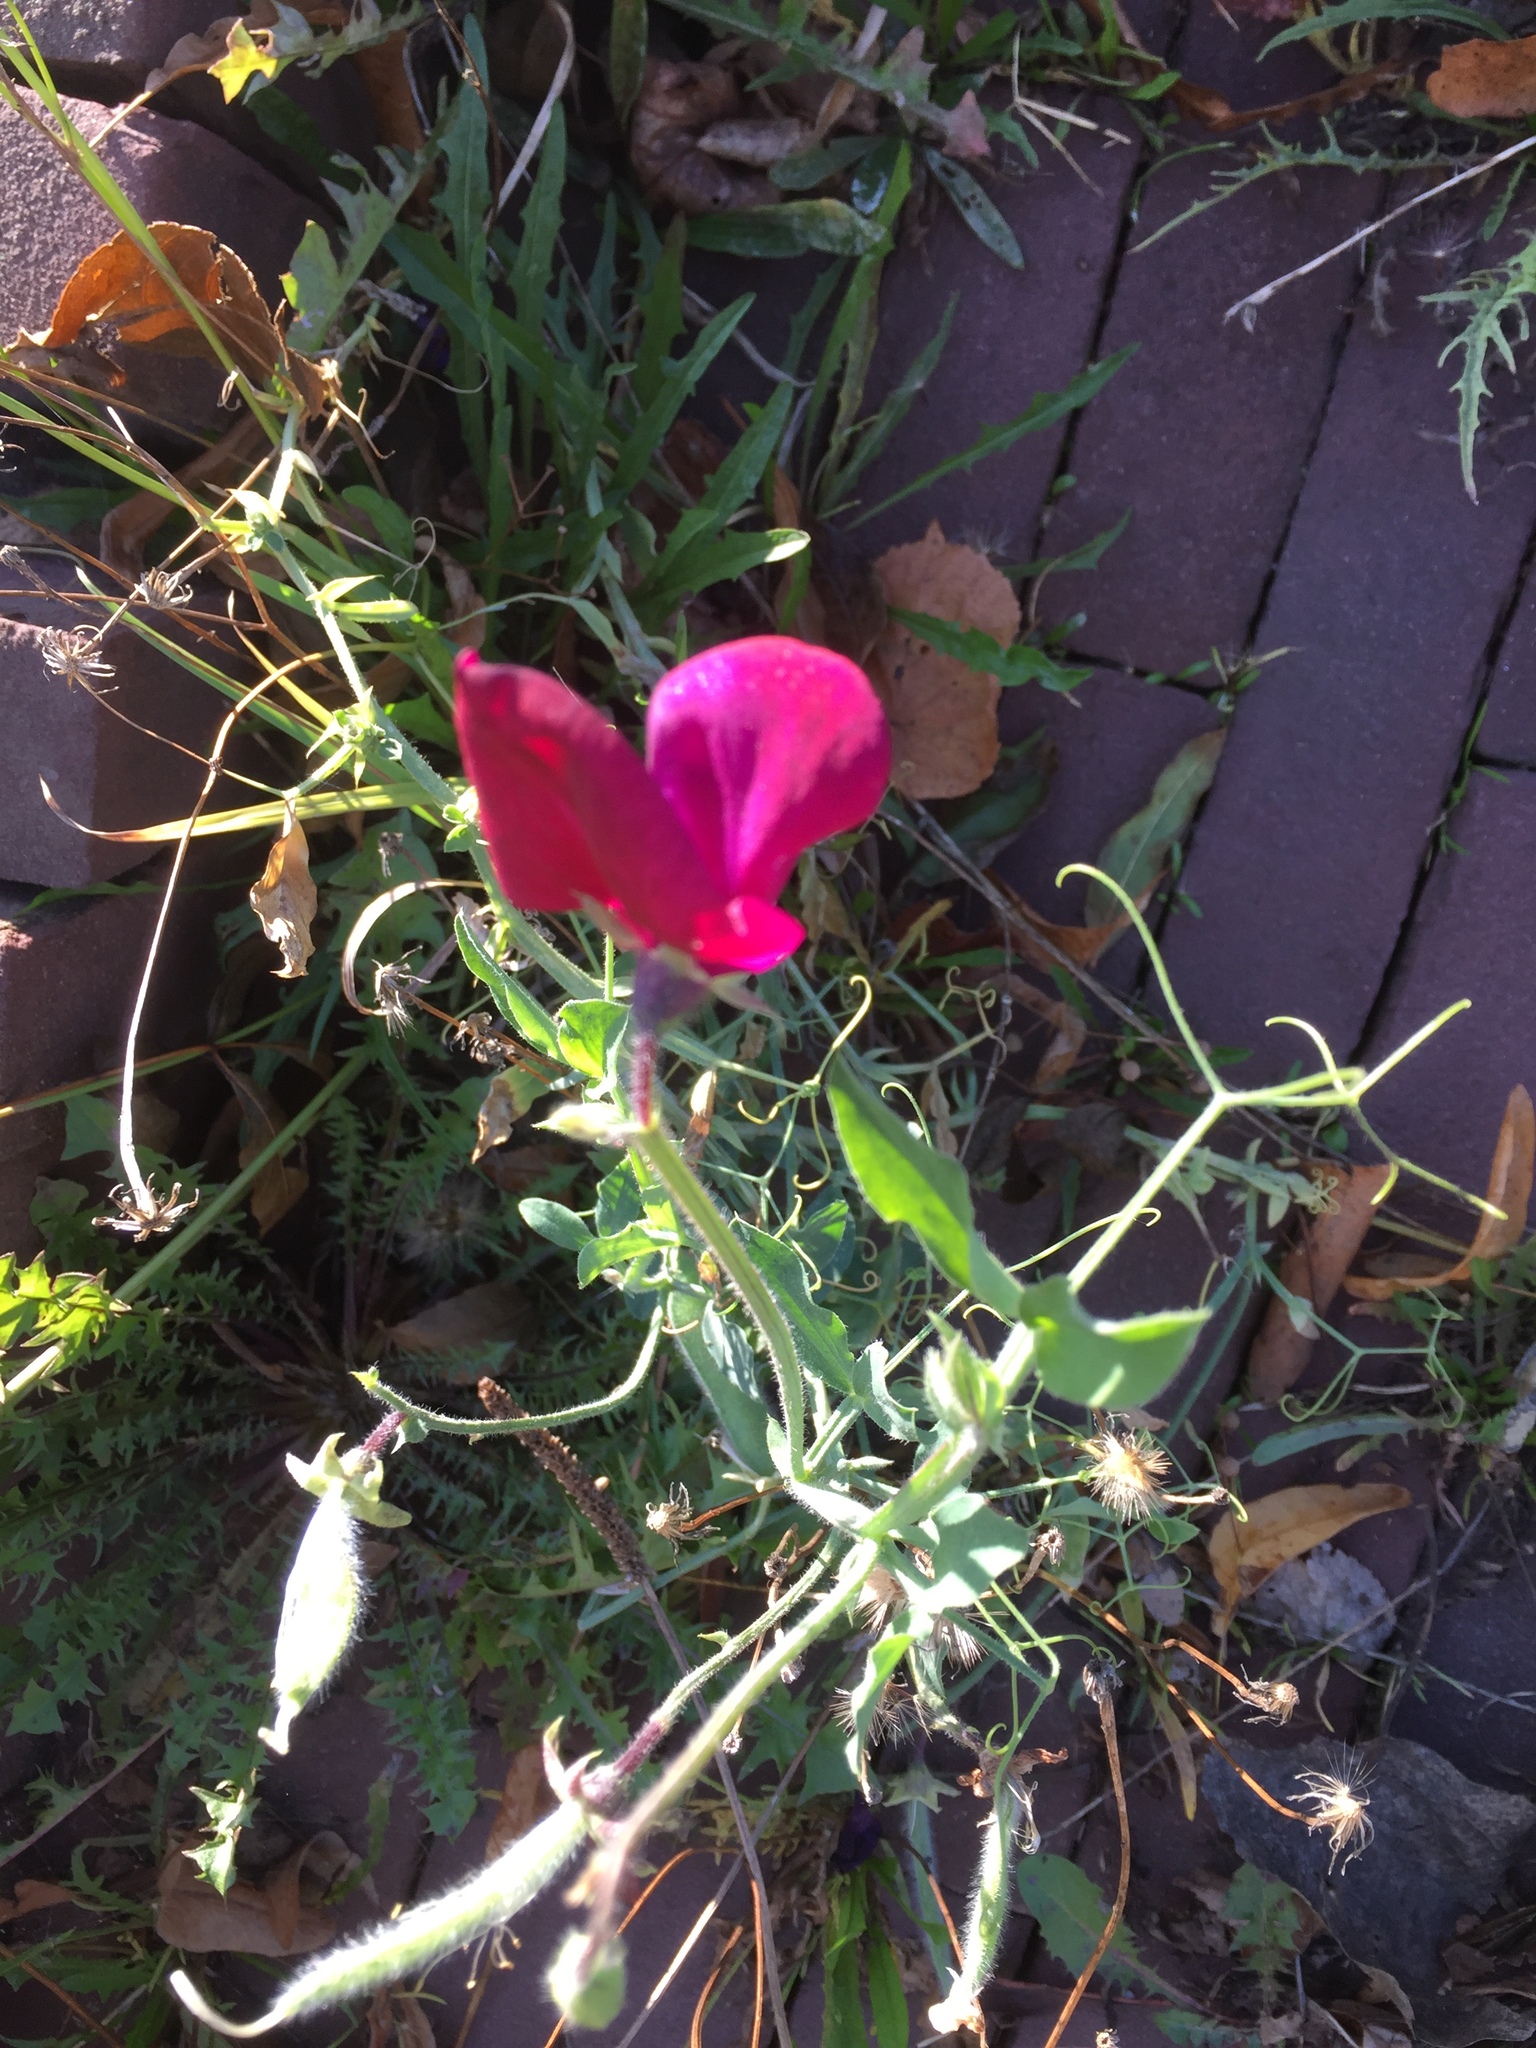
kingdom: Plantae
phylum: Tracheophyta
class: Magnoliopsida
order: Fabales
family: Fabaceae
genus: Lathyrus
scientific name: Lathyrus odoratus
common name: Sweet pea
